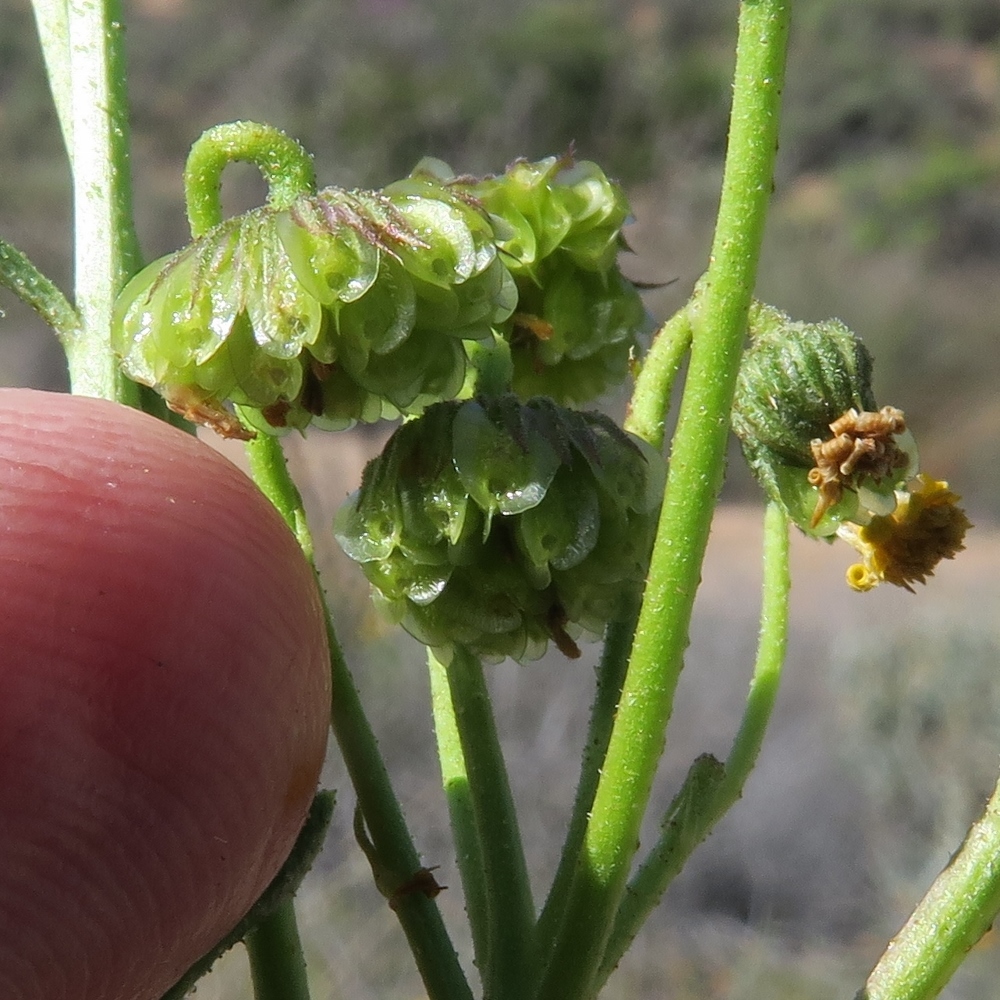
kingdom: Plantae
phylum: Tracheophyta
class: Magnoliopsida
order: Asterales
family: Asteraceae
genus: Osteospermum
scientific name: Osteospermum microcarpum
